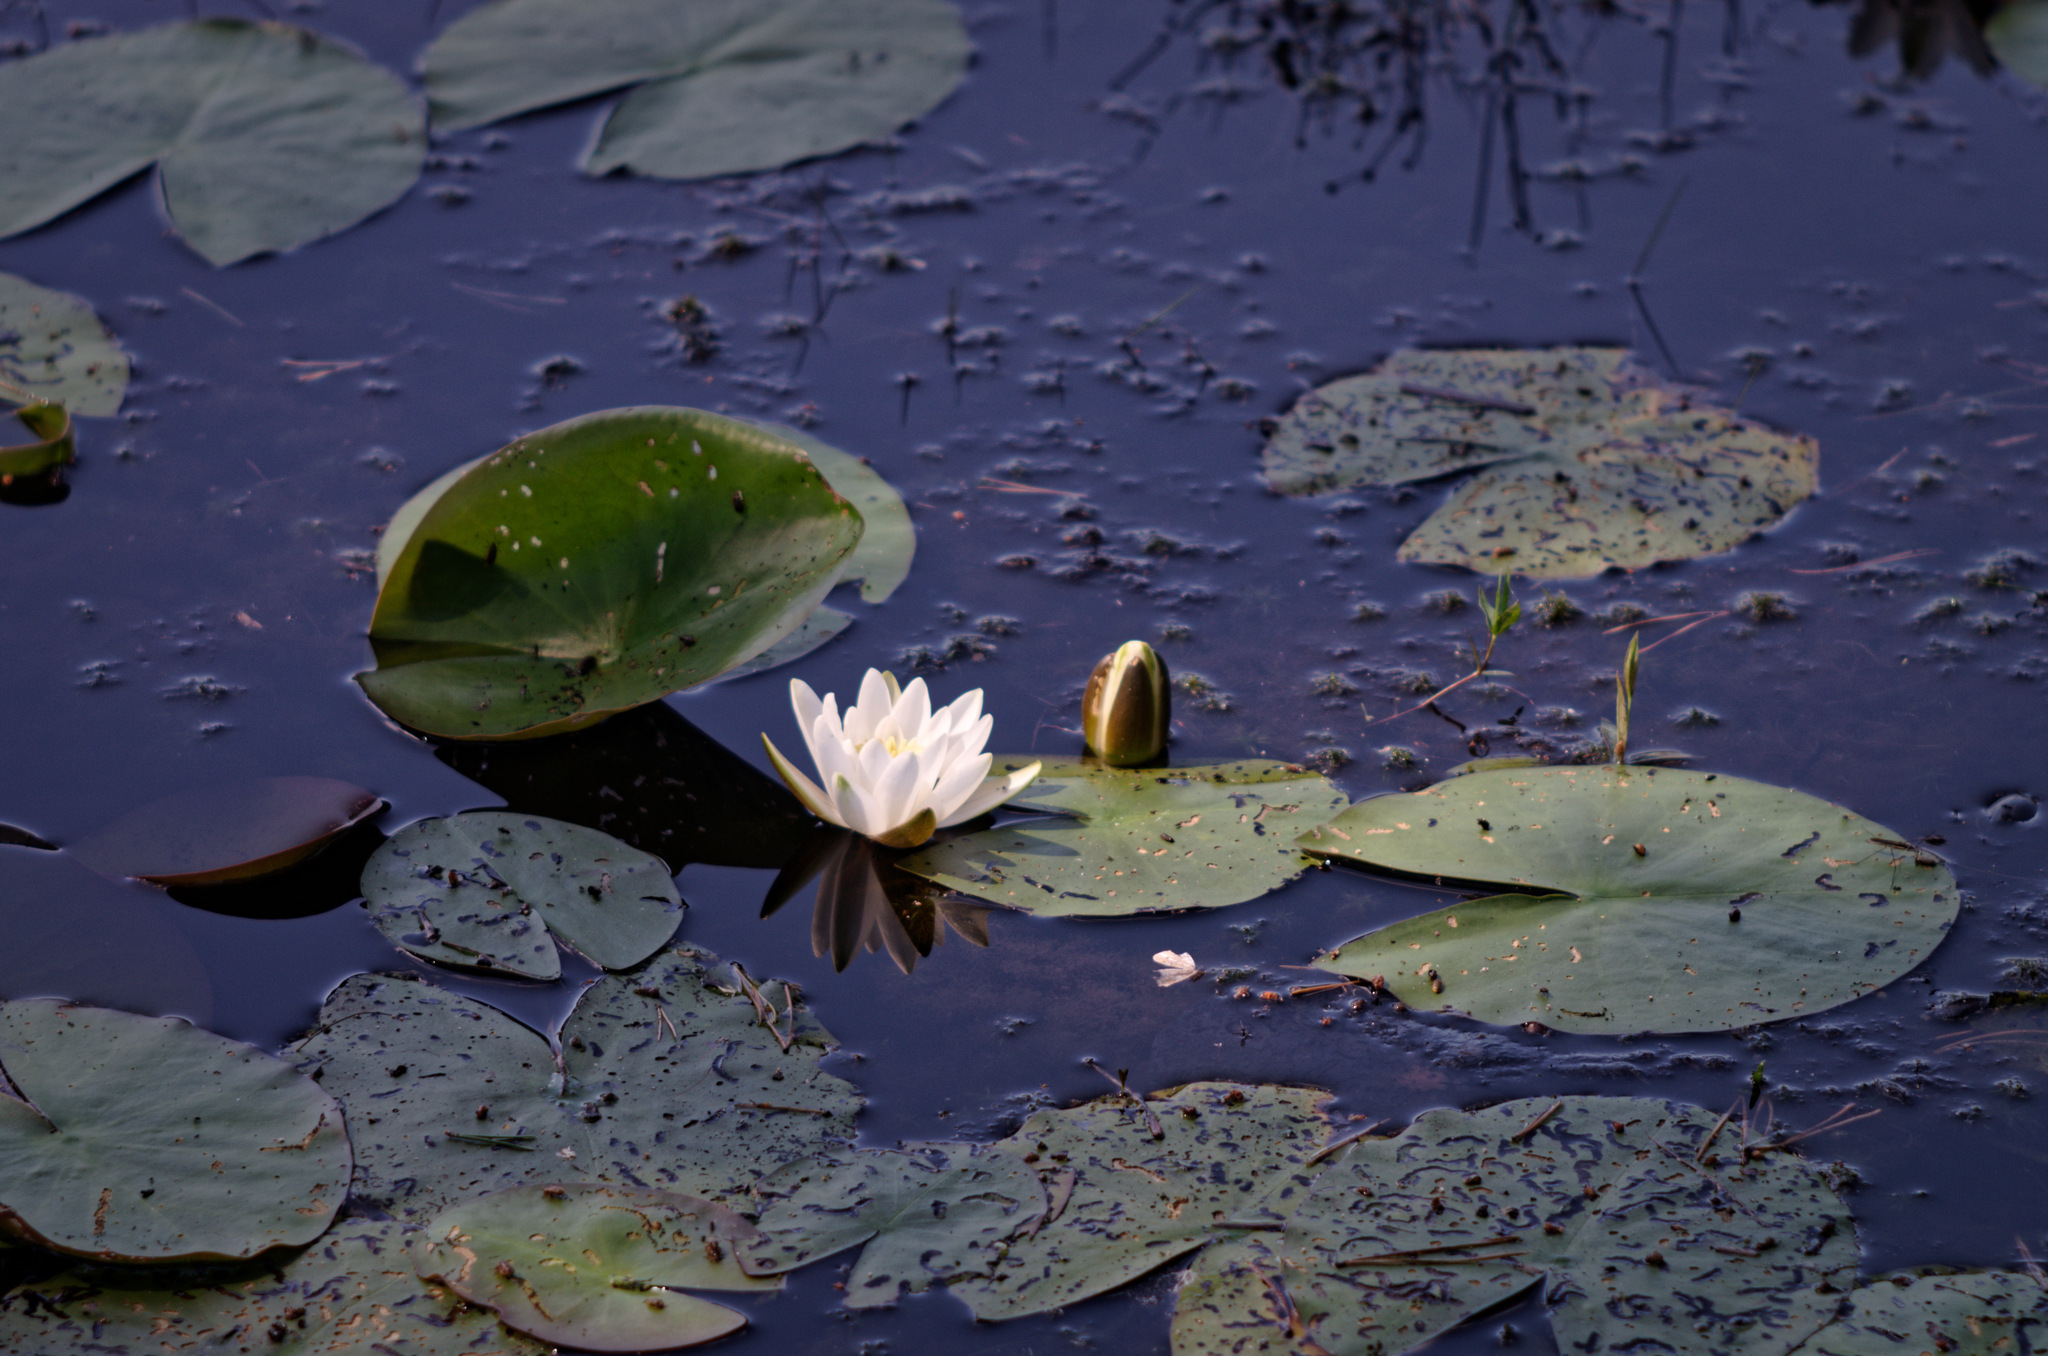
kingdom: Plantae
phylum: Tracheophyta
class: Magnoliopsida
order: Nymphaeales
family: Nymphaeaceae
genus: Nymphaea
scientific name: Nymphaea alba
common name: White water-lily
